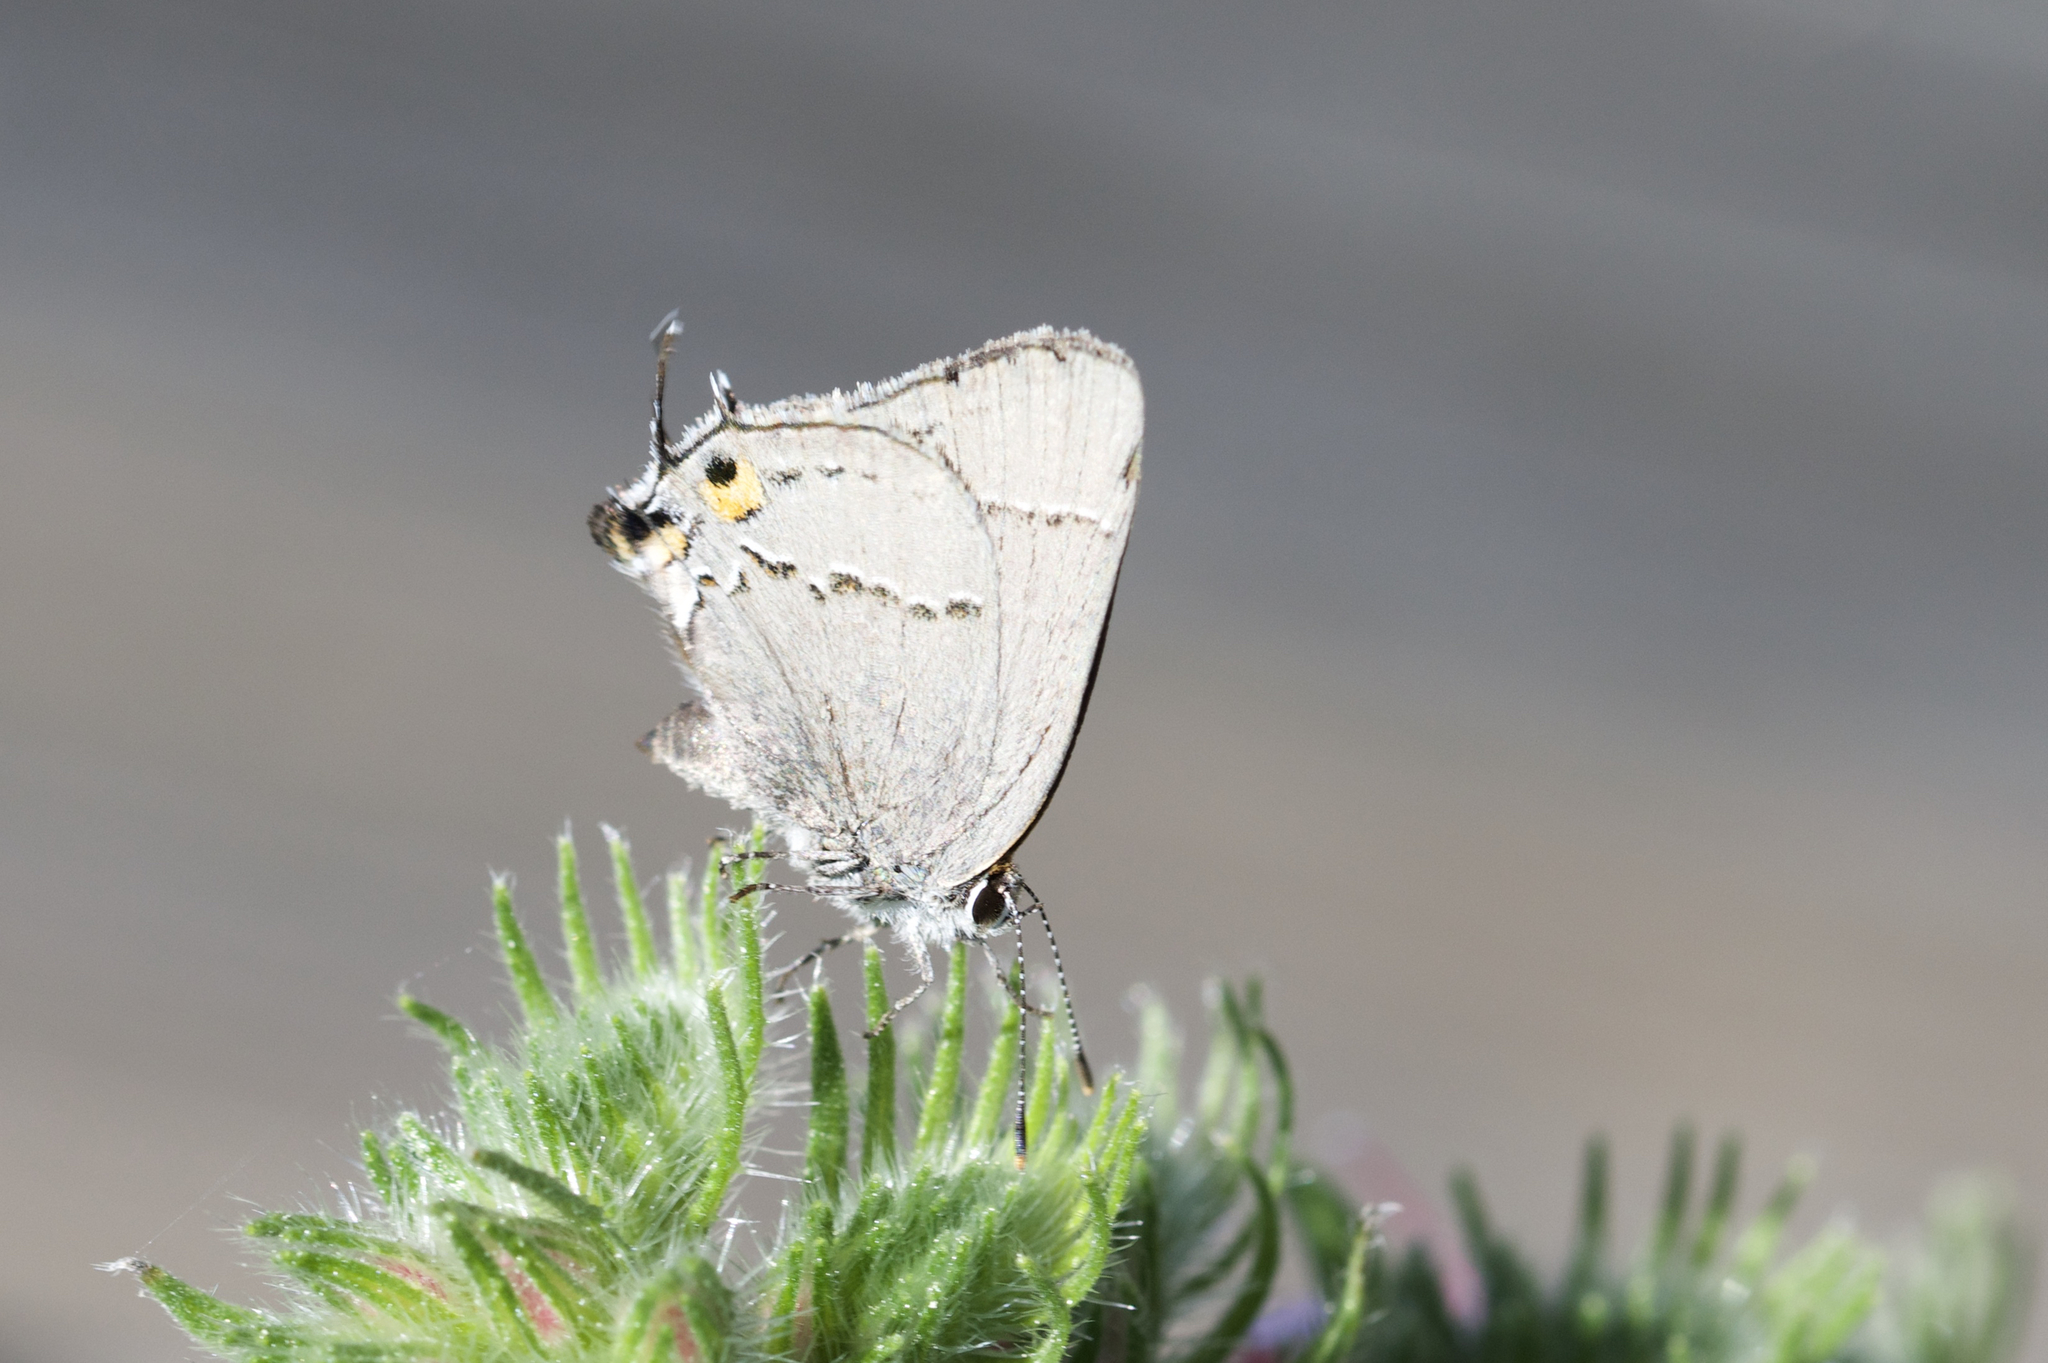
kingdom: Animalia
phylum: Arthropoda
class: Insecta
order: Lepidoptera
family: Lycaenidae
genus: Strymon
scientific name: Strymon melinus
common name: Gray hairstreak
